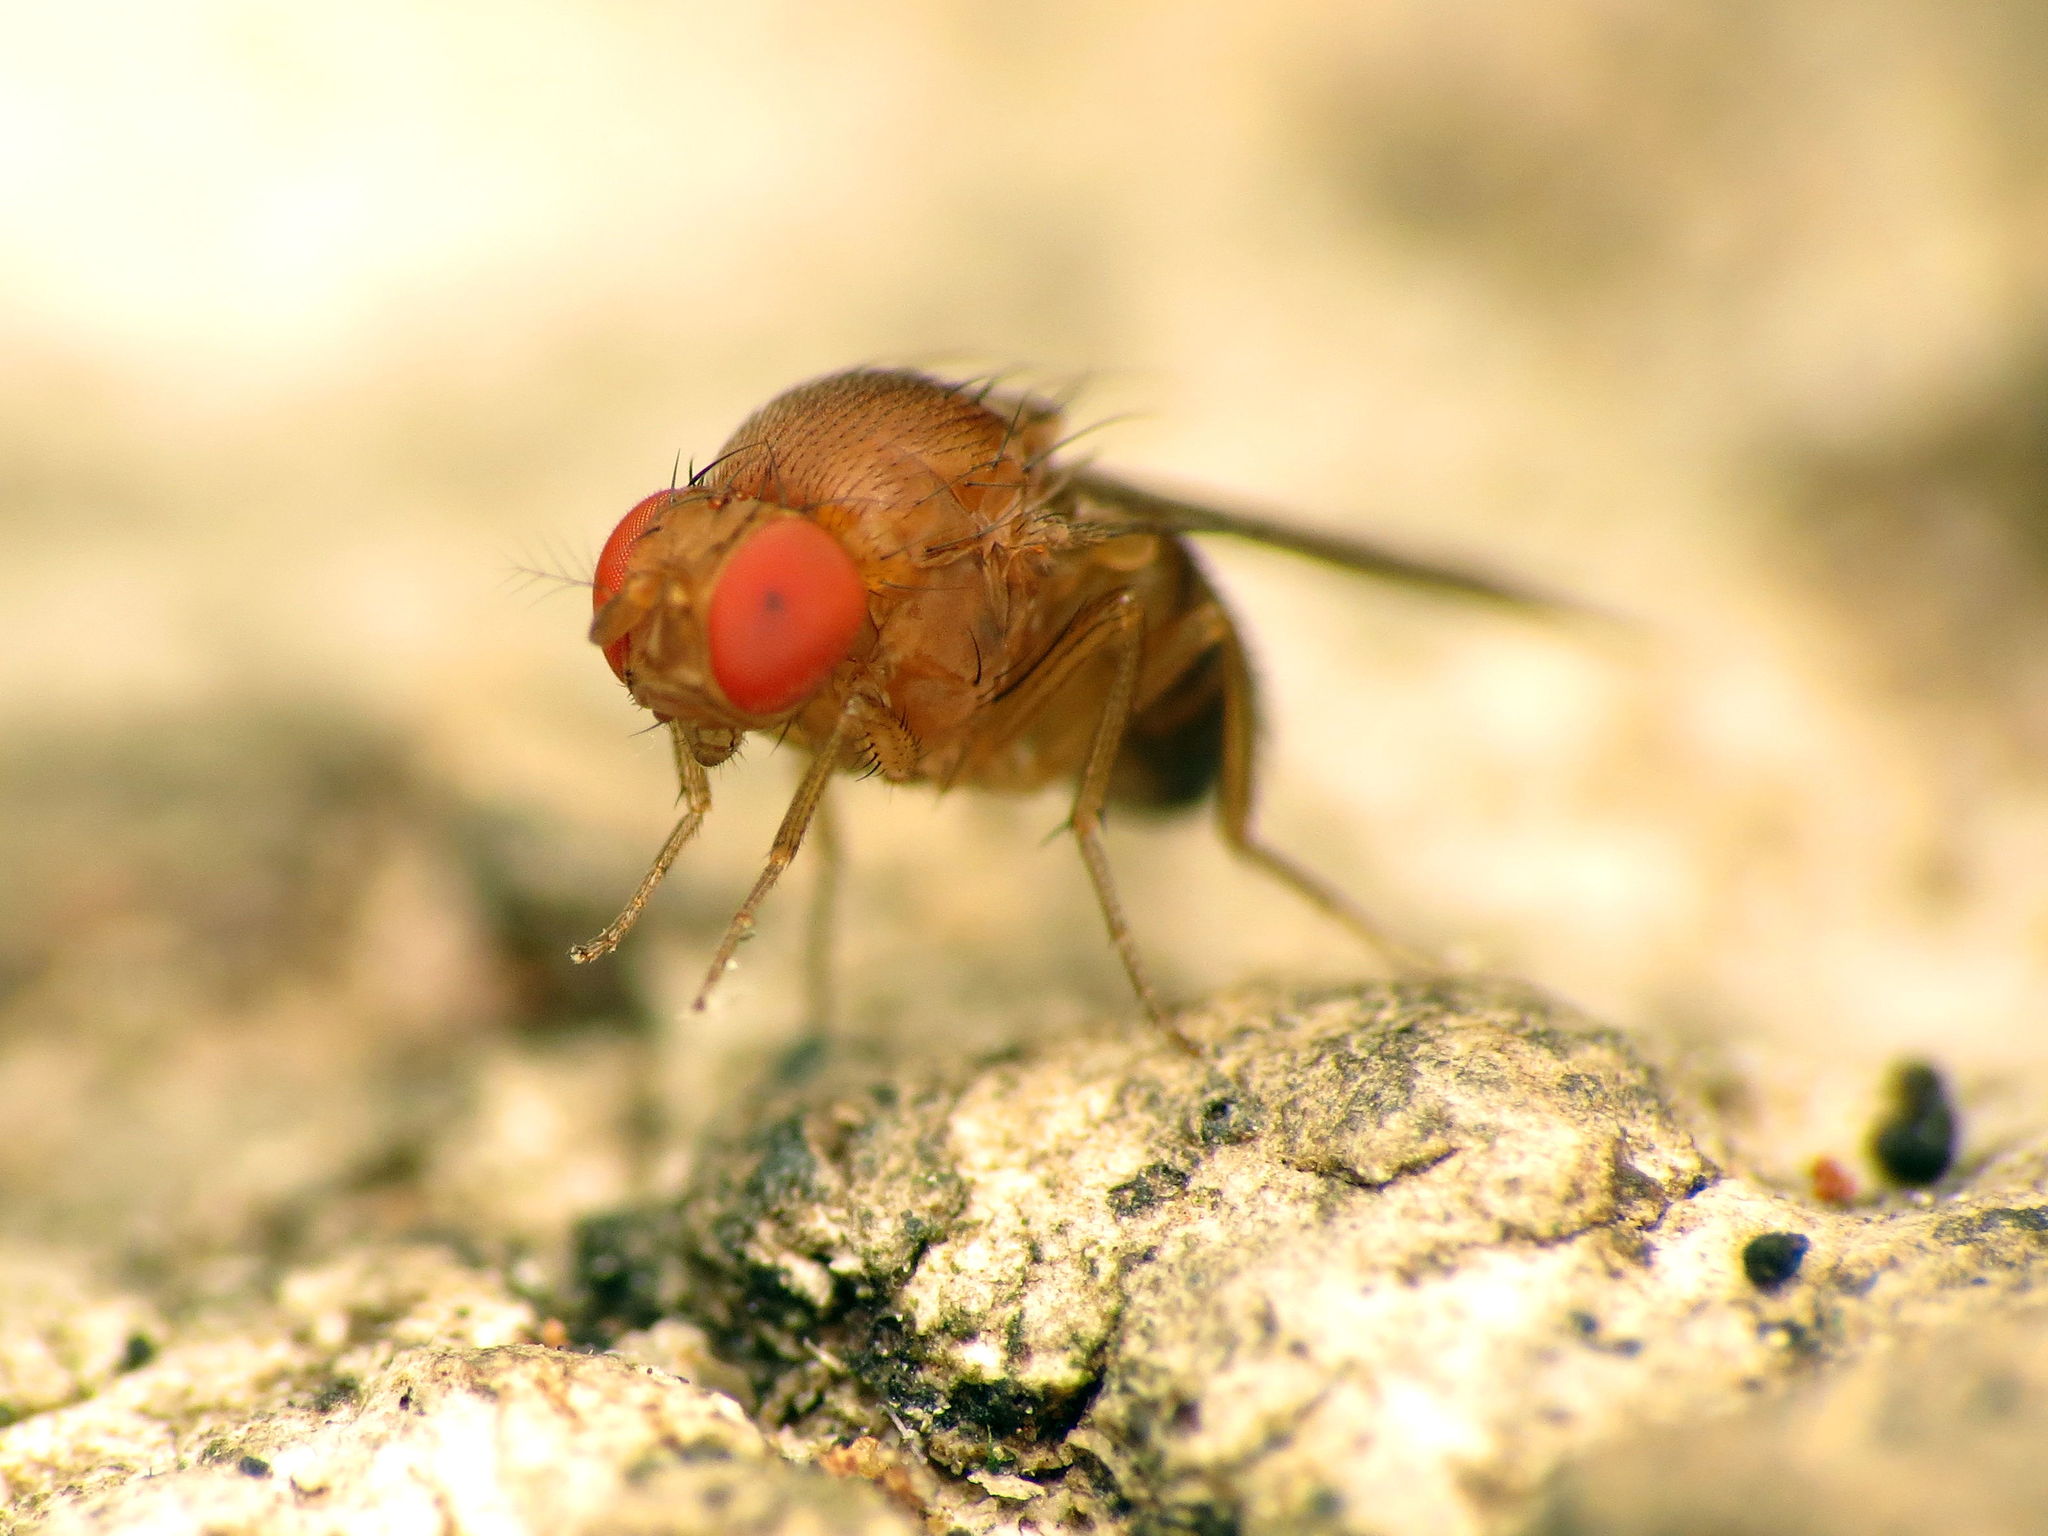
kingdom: Animalia
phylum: Arthropoda
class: Insecta
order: Diptera
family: Drosophilidae
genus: Drosophila
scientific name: Drosophila suzukii
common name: Spotted-wing drosophila
